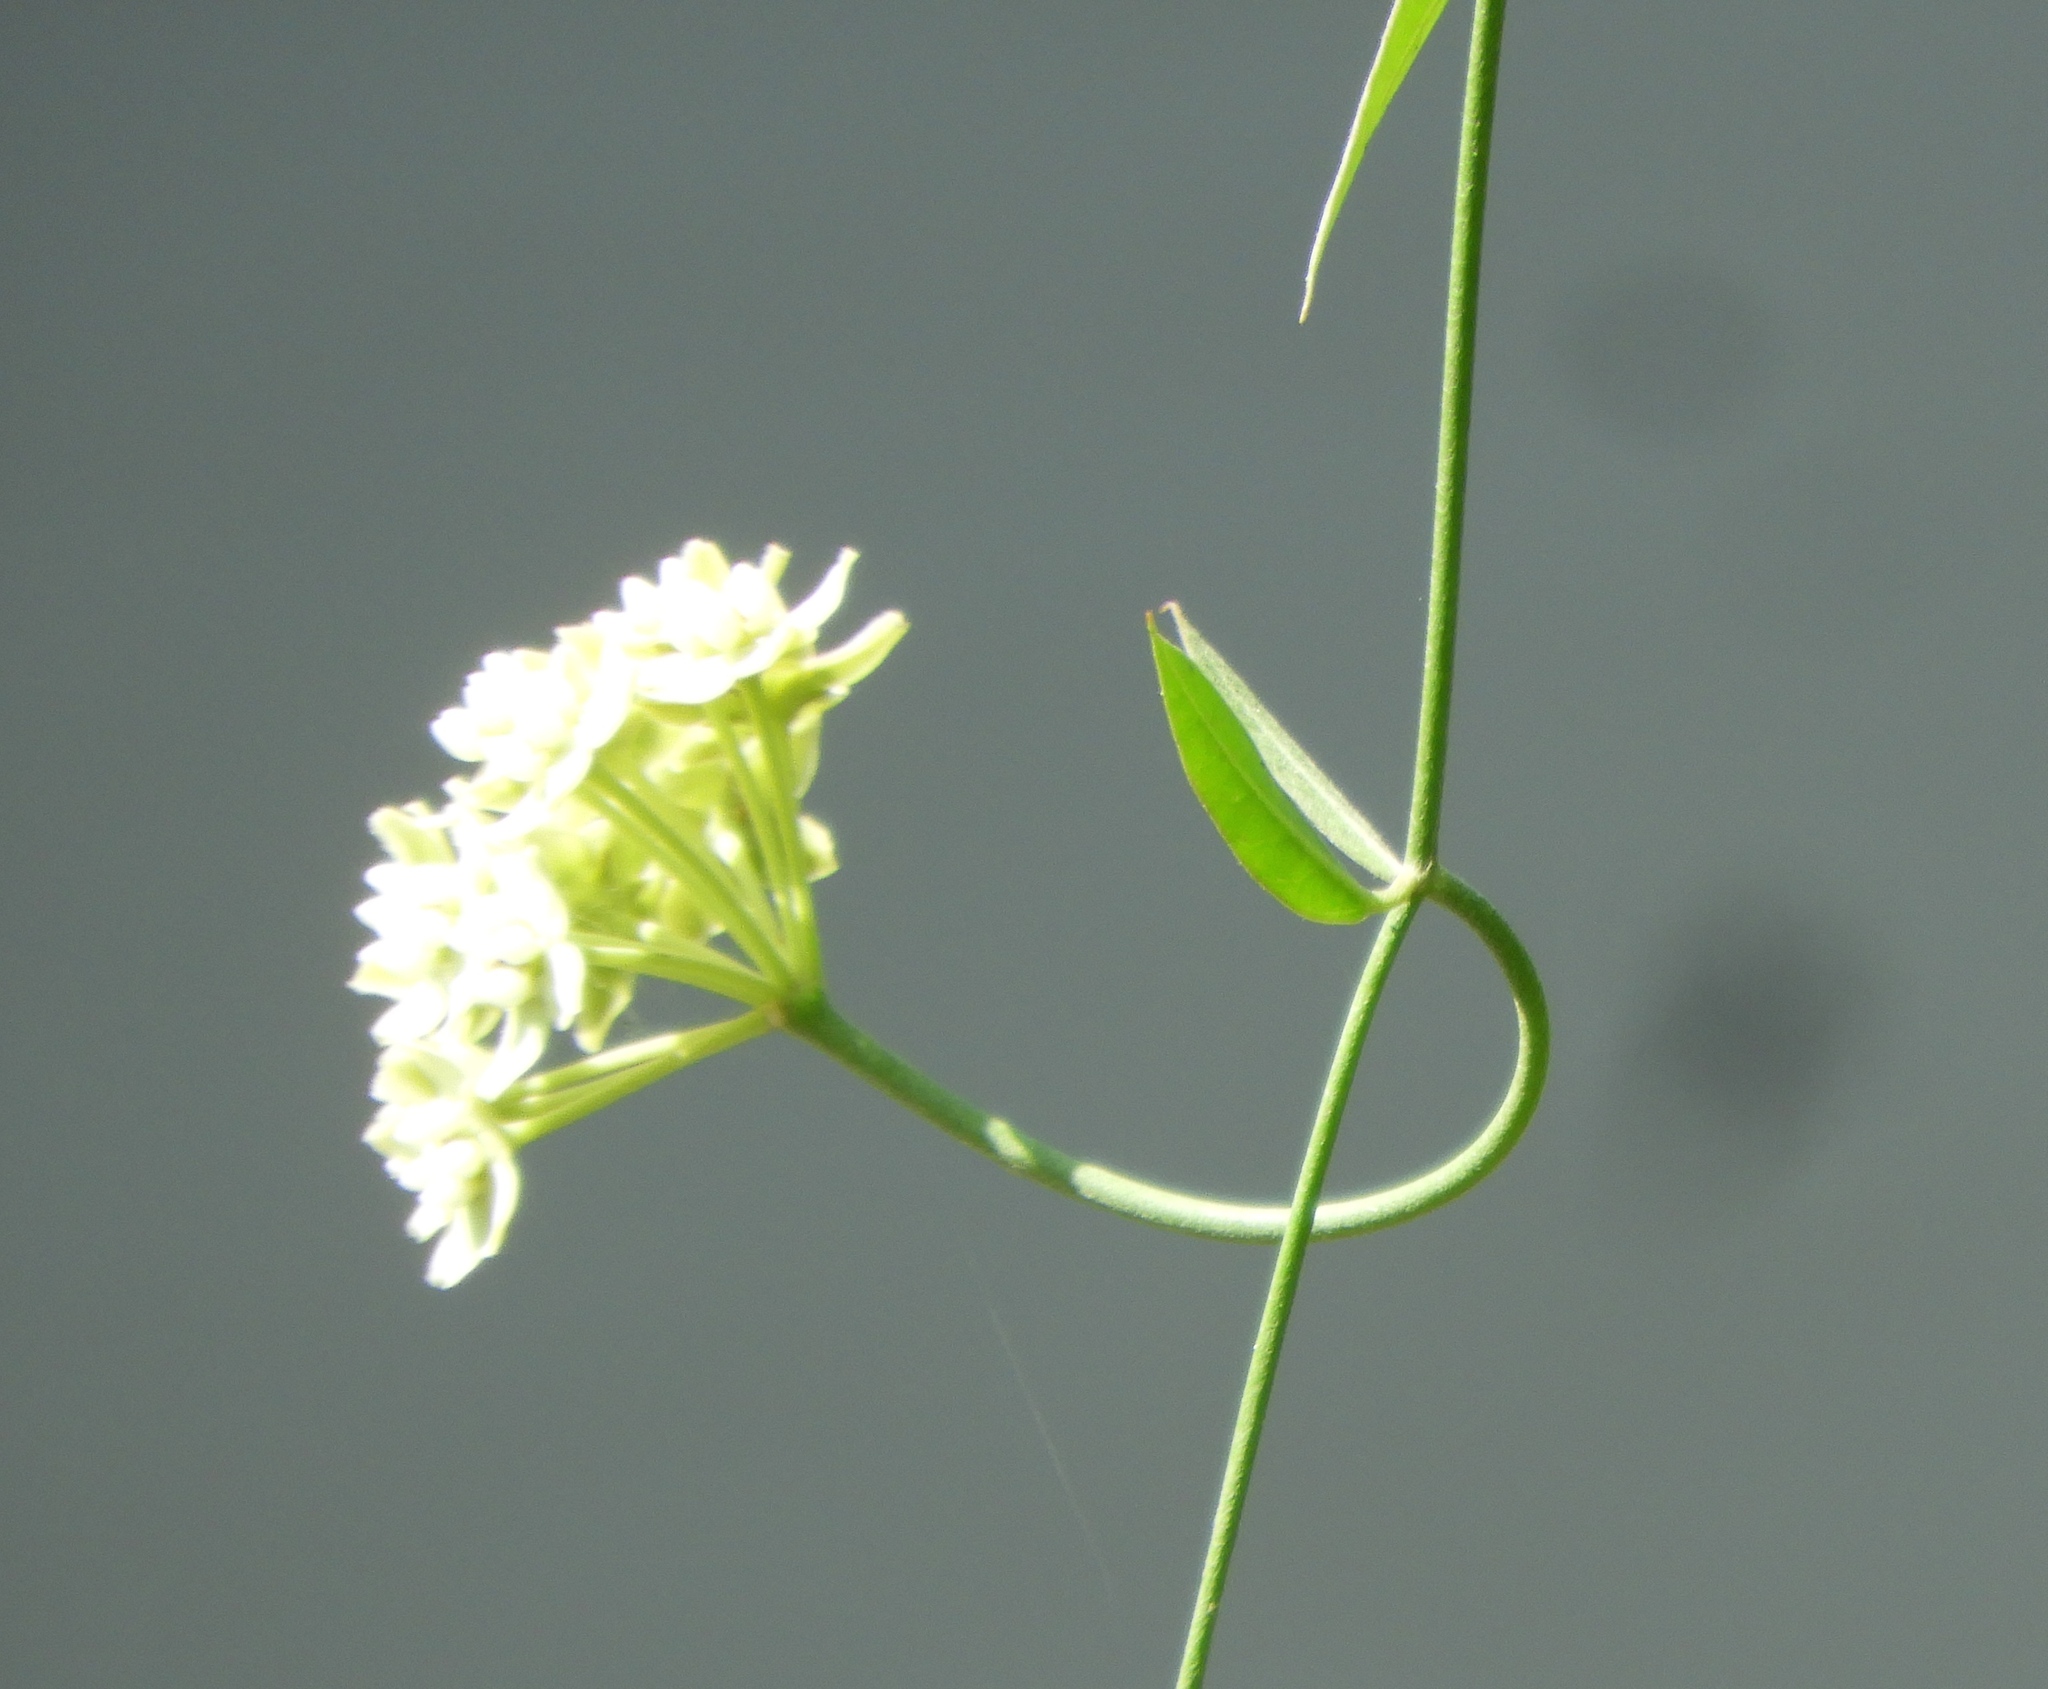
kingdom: Plantae
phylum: Tracheophyta
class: Magnoliopsida
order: Gentianales
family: Apocynaceae
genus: Funastrum
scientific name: Funastrum clausum
